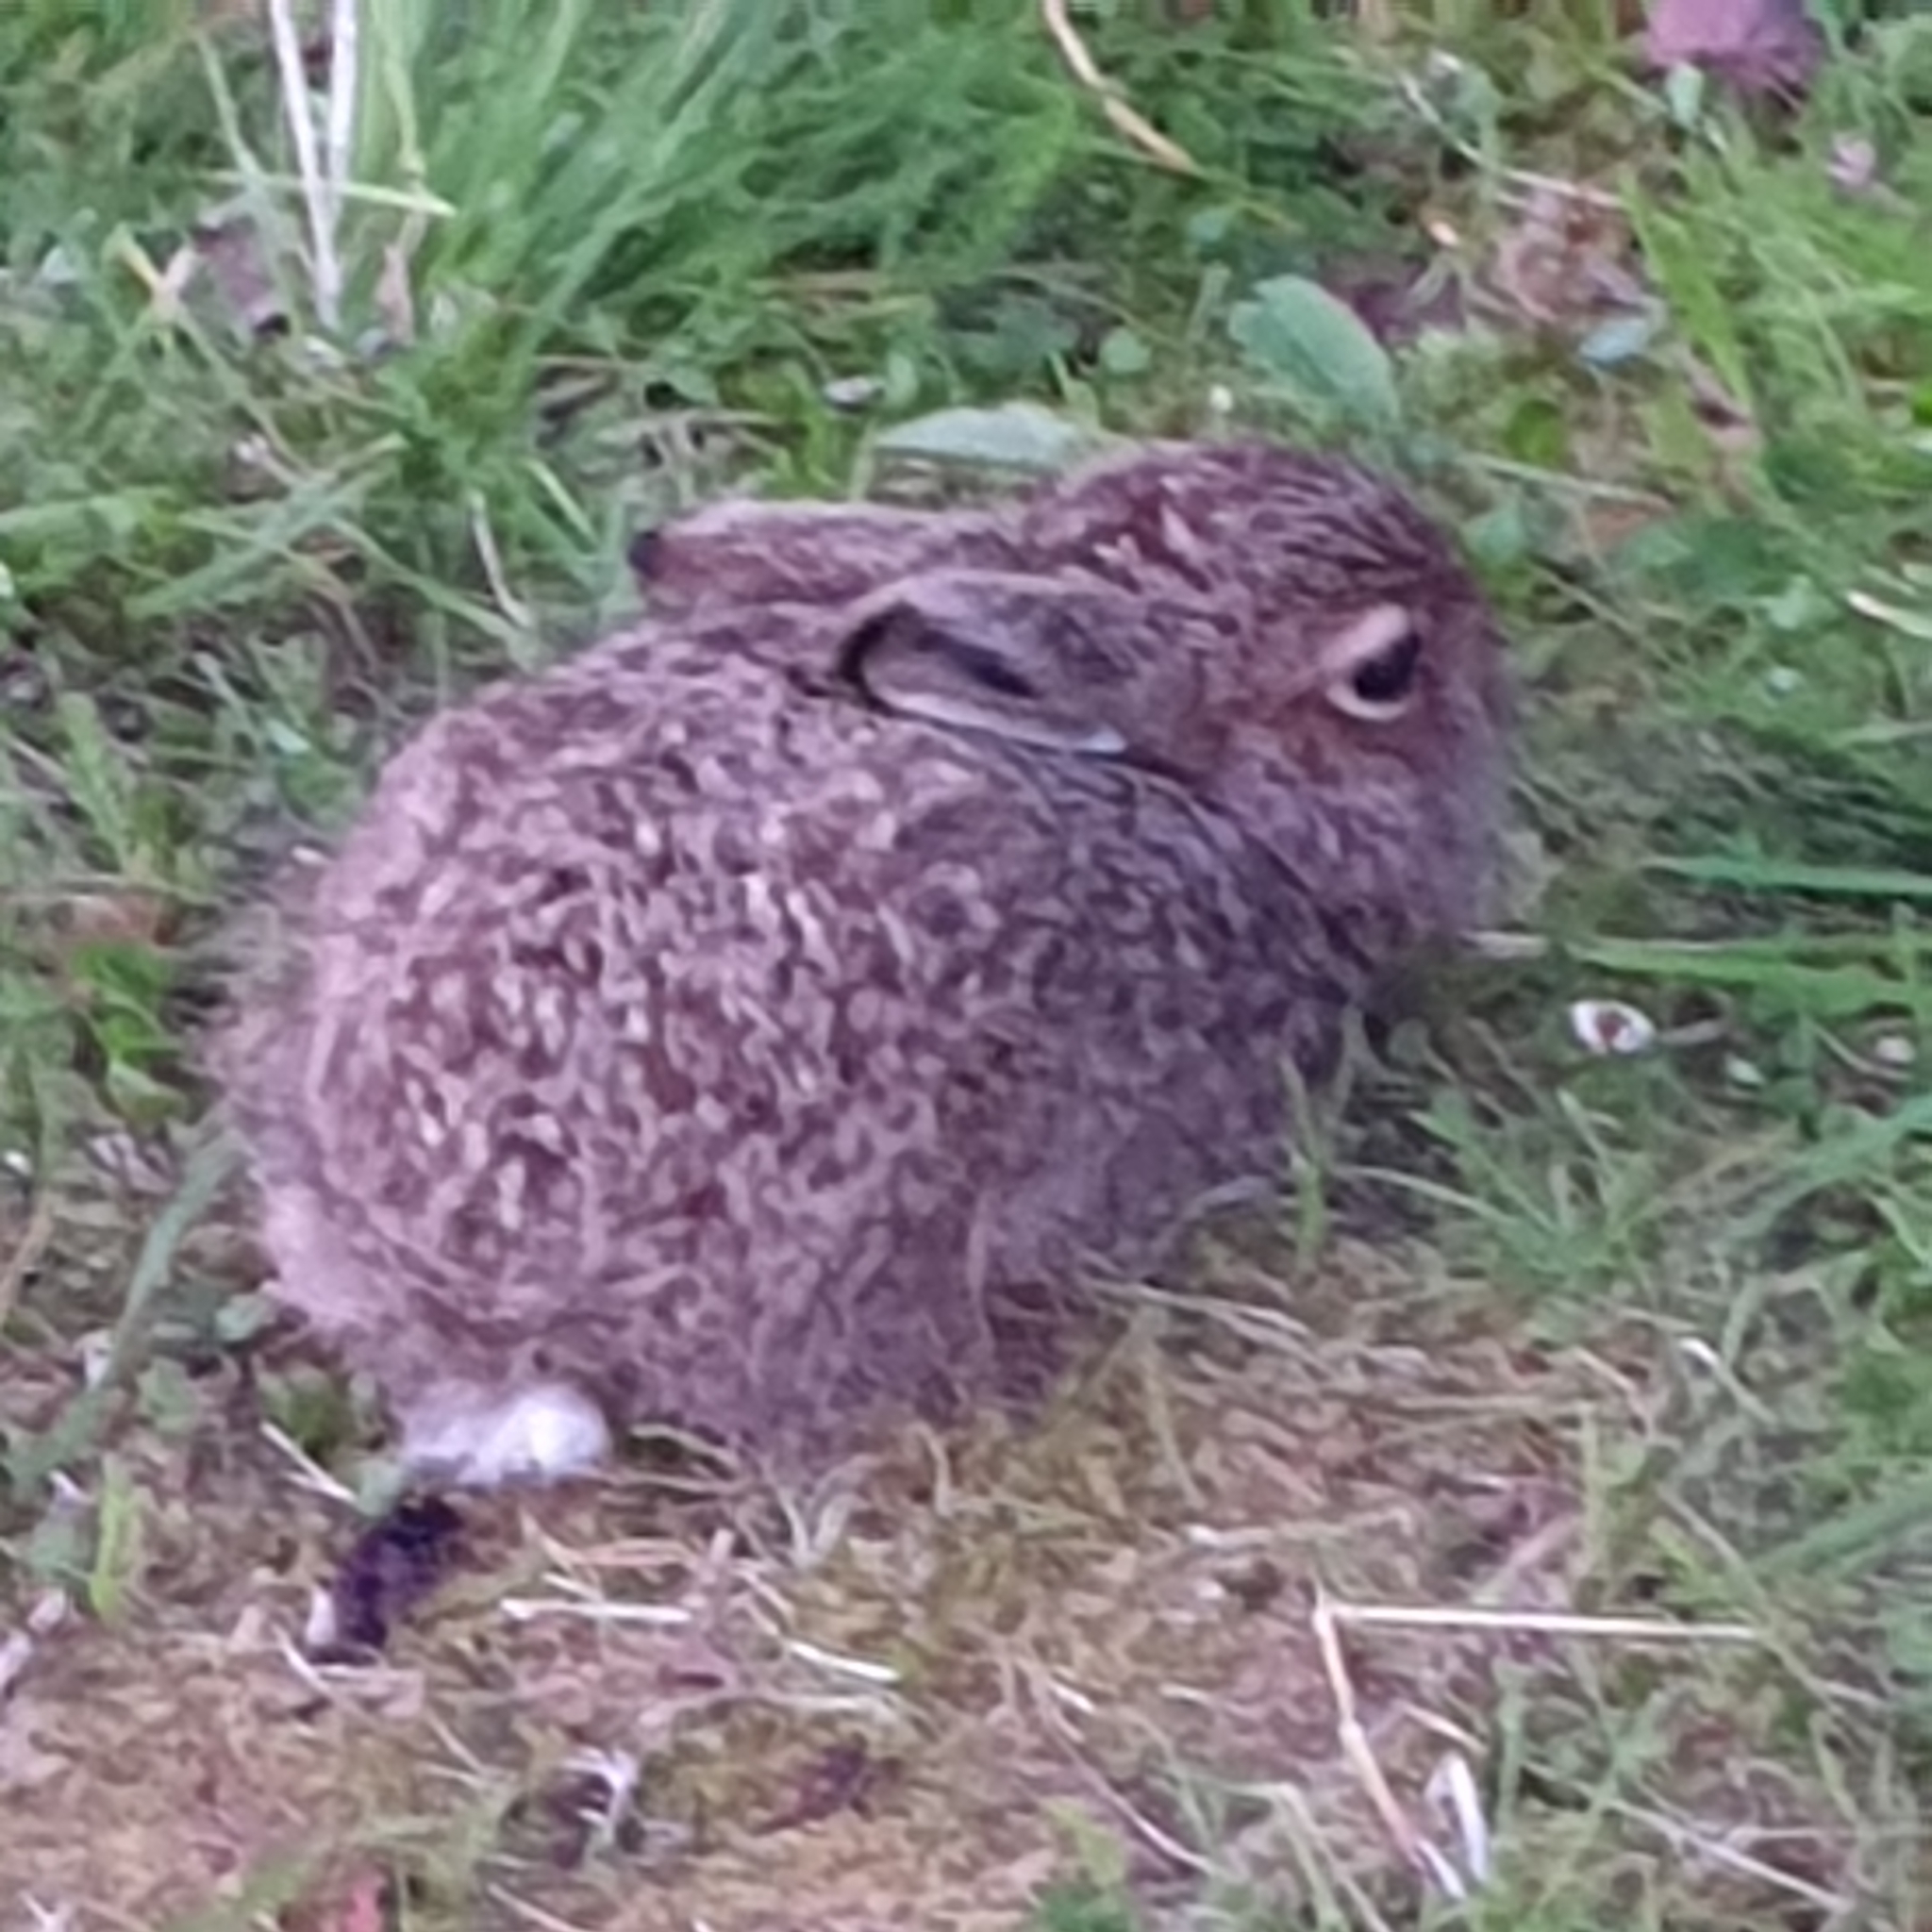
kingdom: Animalia
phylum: Chordata
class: Mammalia
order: Lagomorpha
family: Leporidae
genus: Lepus
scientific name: Lepus timidus
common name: Mountain hare
